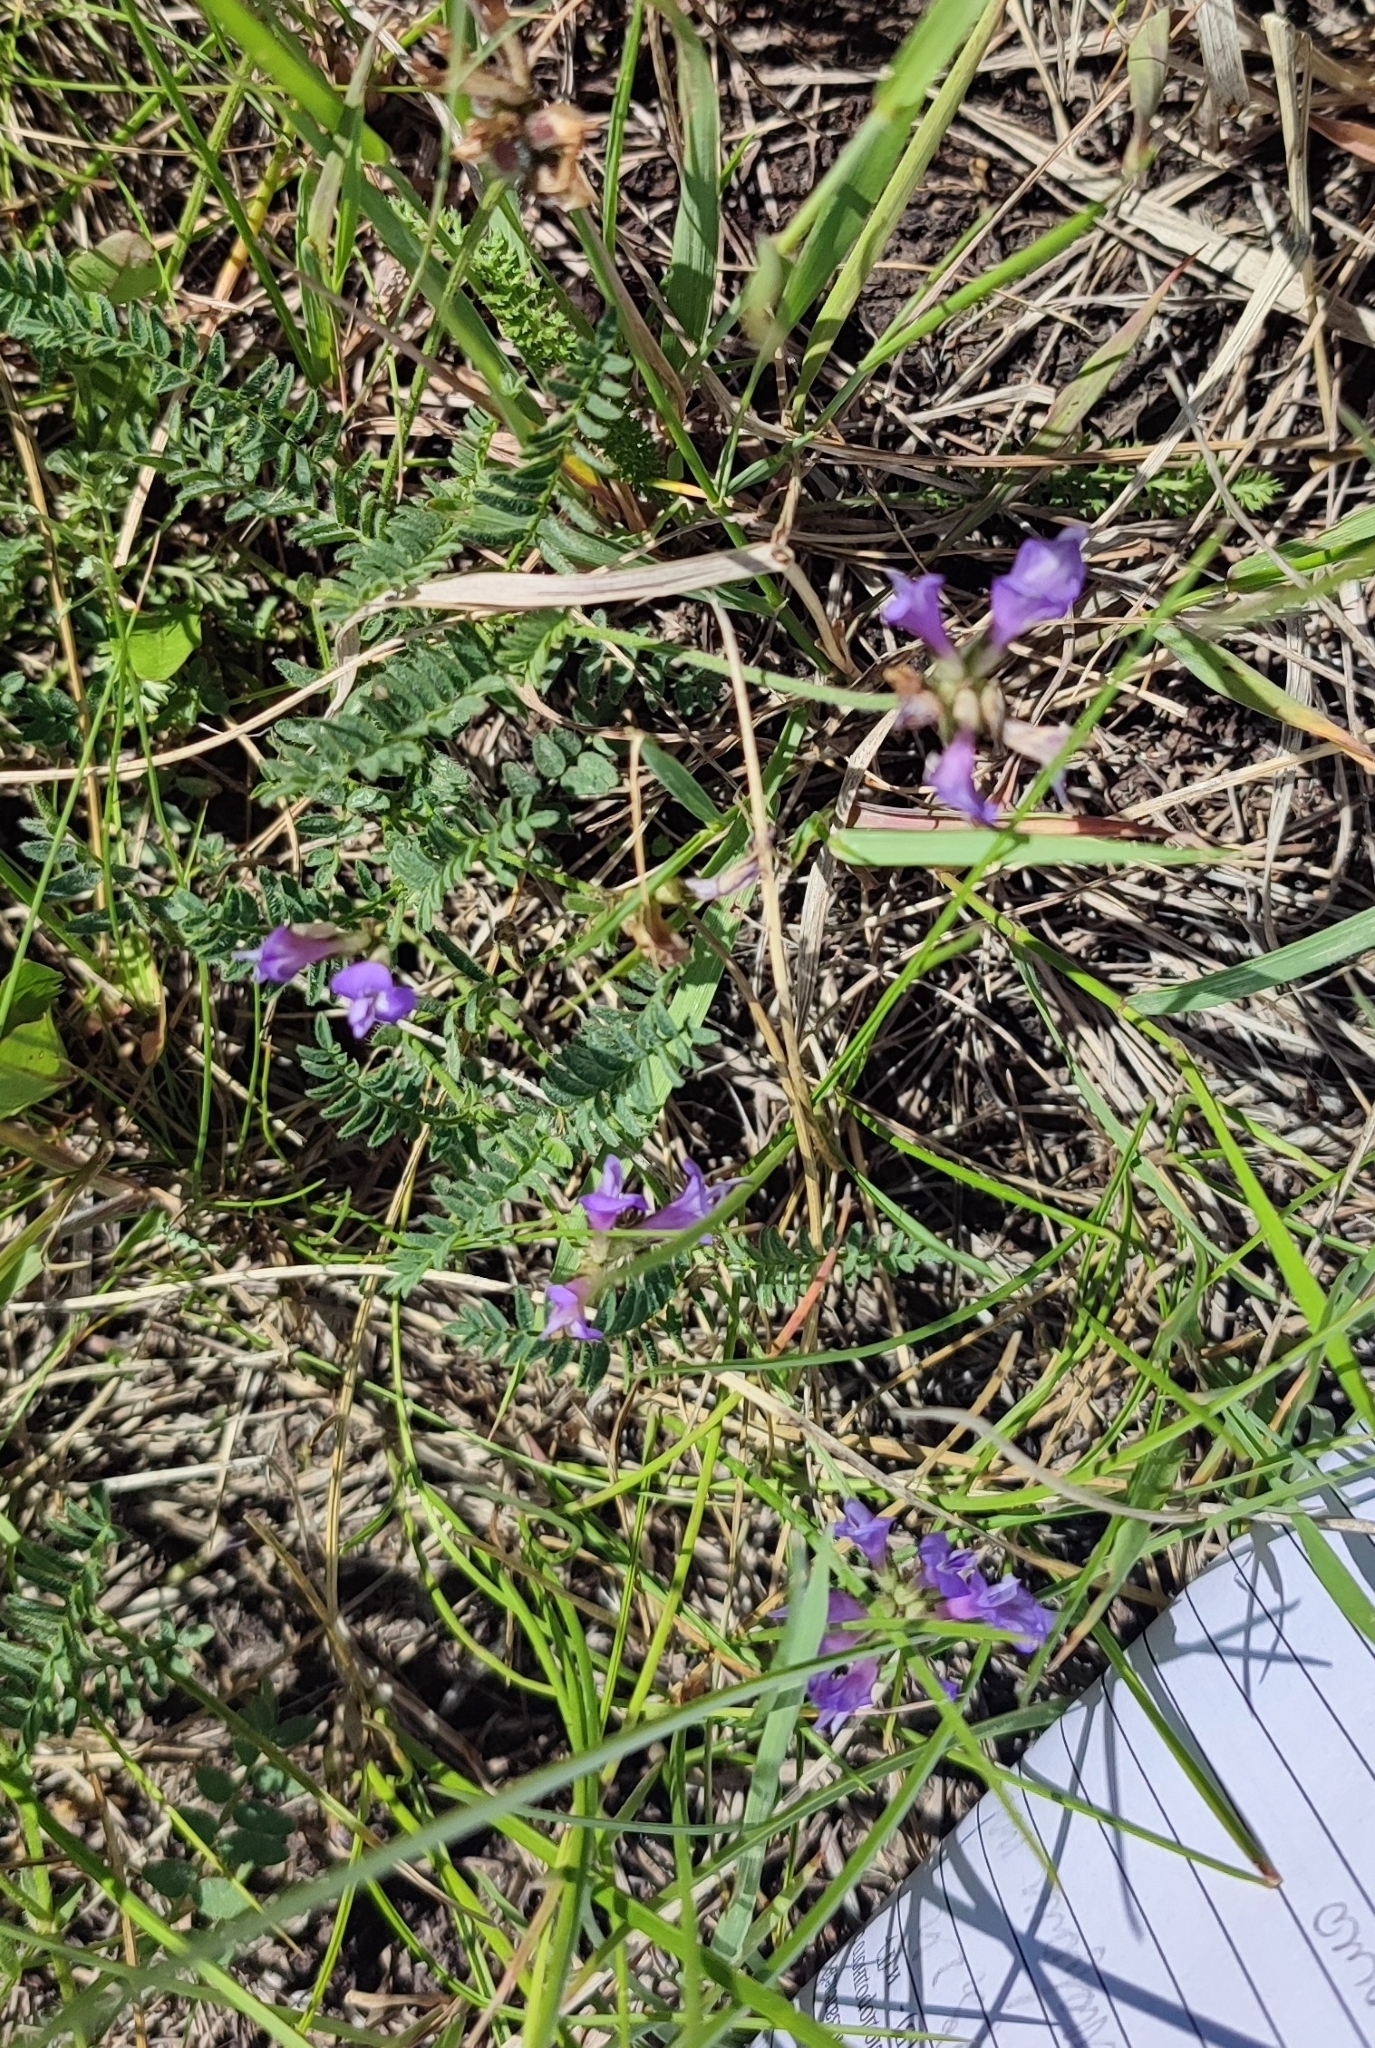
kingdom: Plantae
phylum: Tracheophyta
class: Magnoliopsida
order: Fabales
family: Fabaceae
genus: Astragalus
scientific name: Astragalus danicus
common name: Purple milk-vetch
